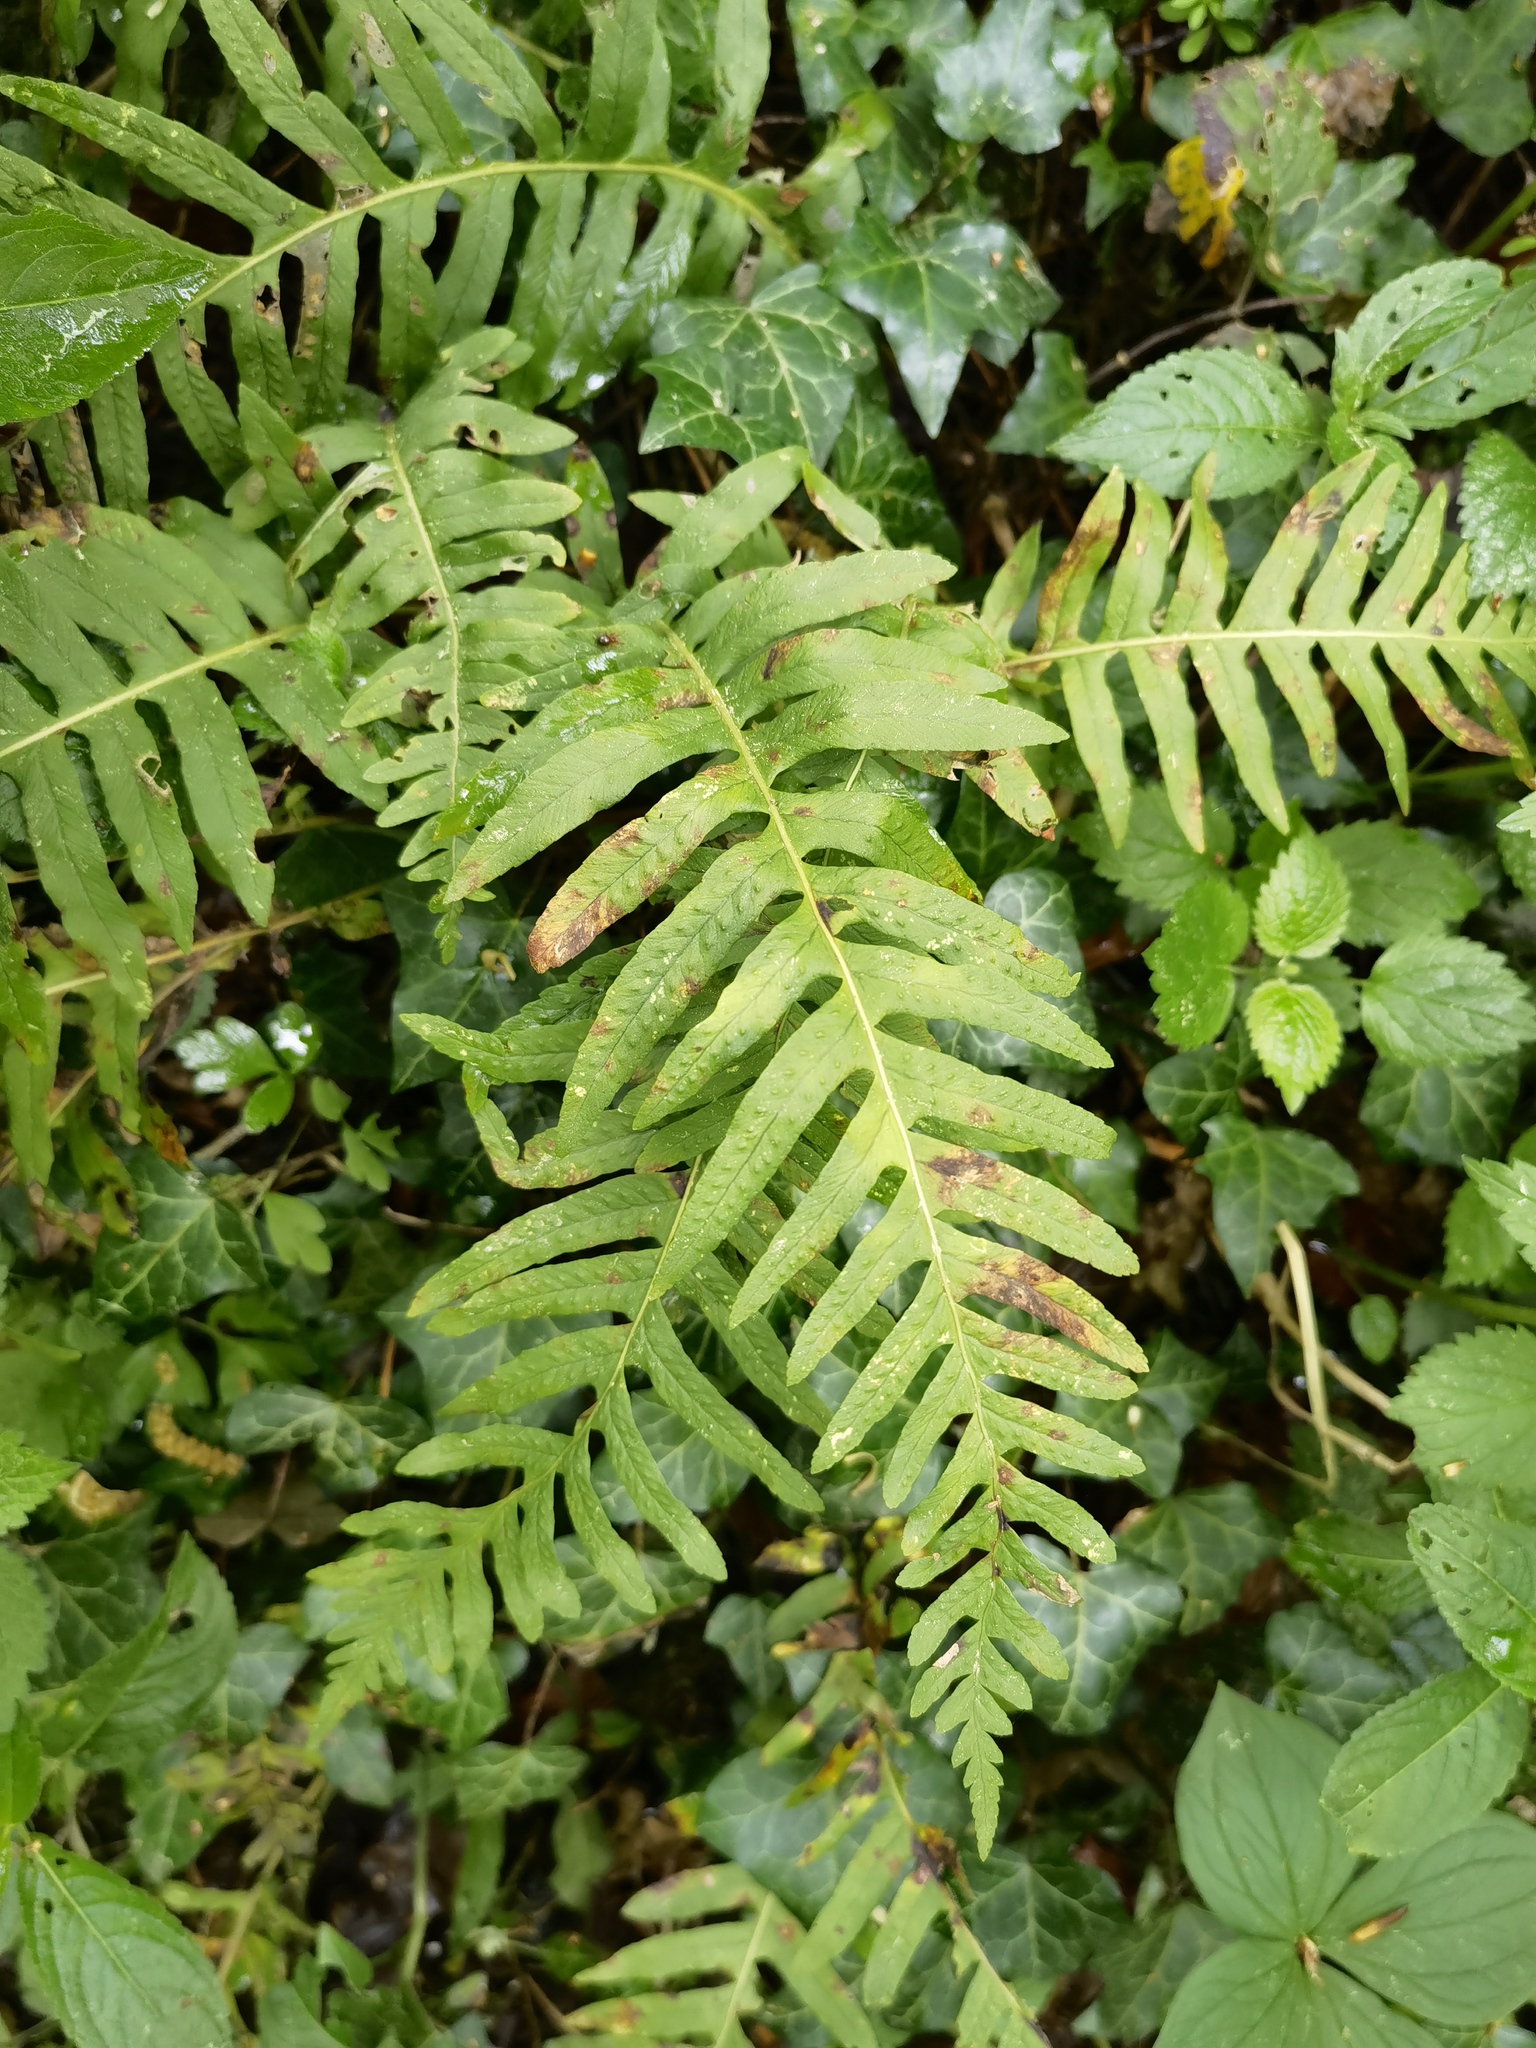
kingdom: Plantae
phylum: Tracheophyta
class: Polypodiopsida
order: Polypodiales
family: Polypodiaceae
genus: Polypodium
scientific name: Polypodium interjectum
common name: Intermediate polypody
